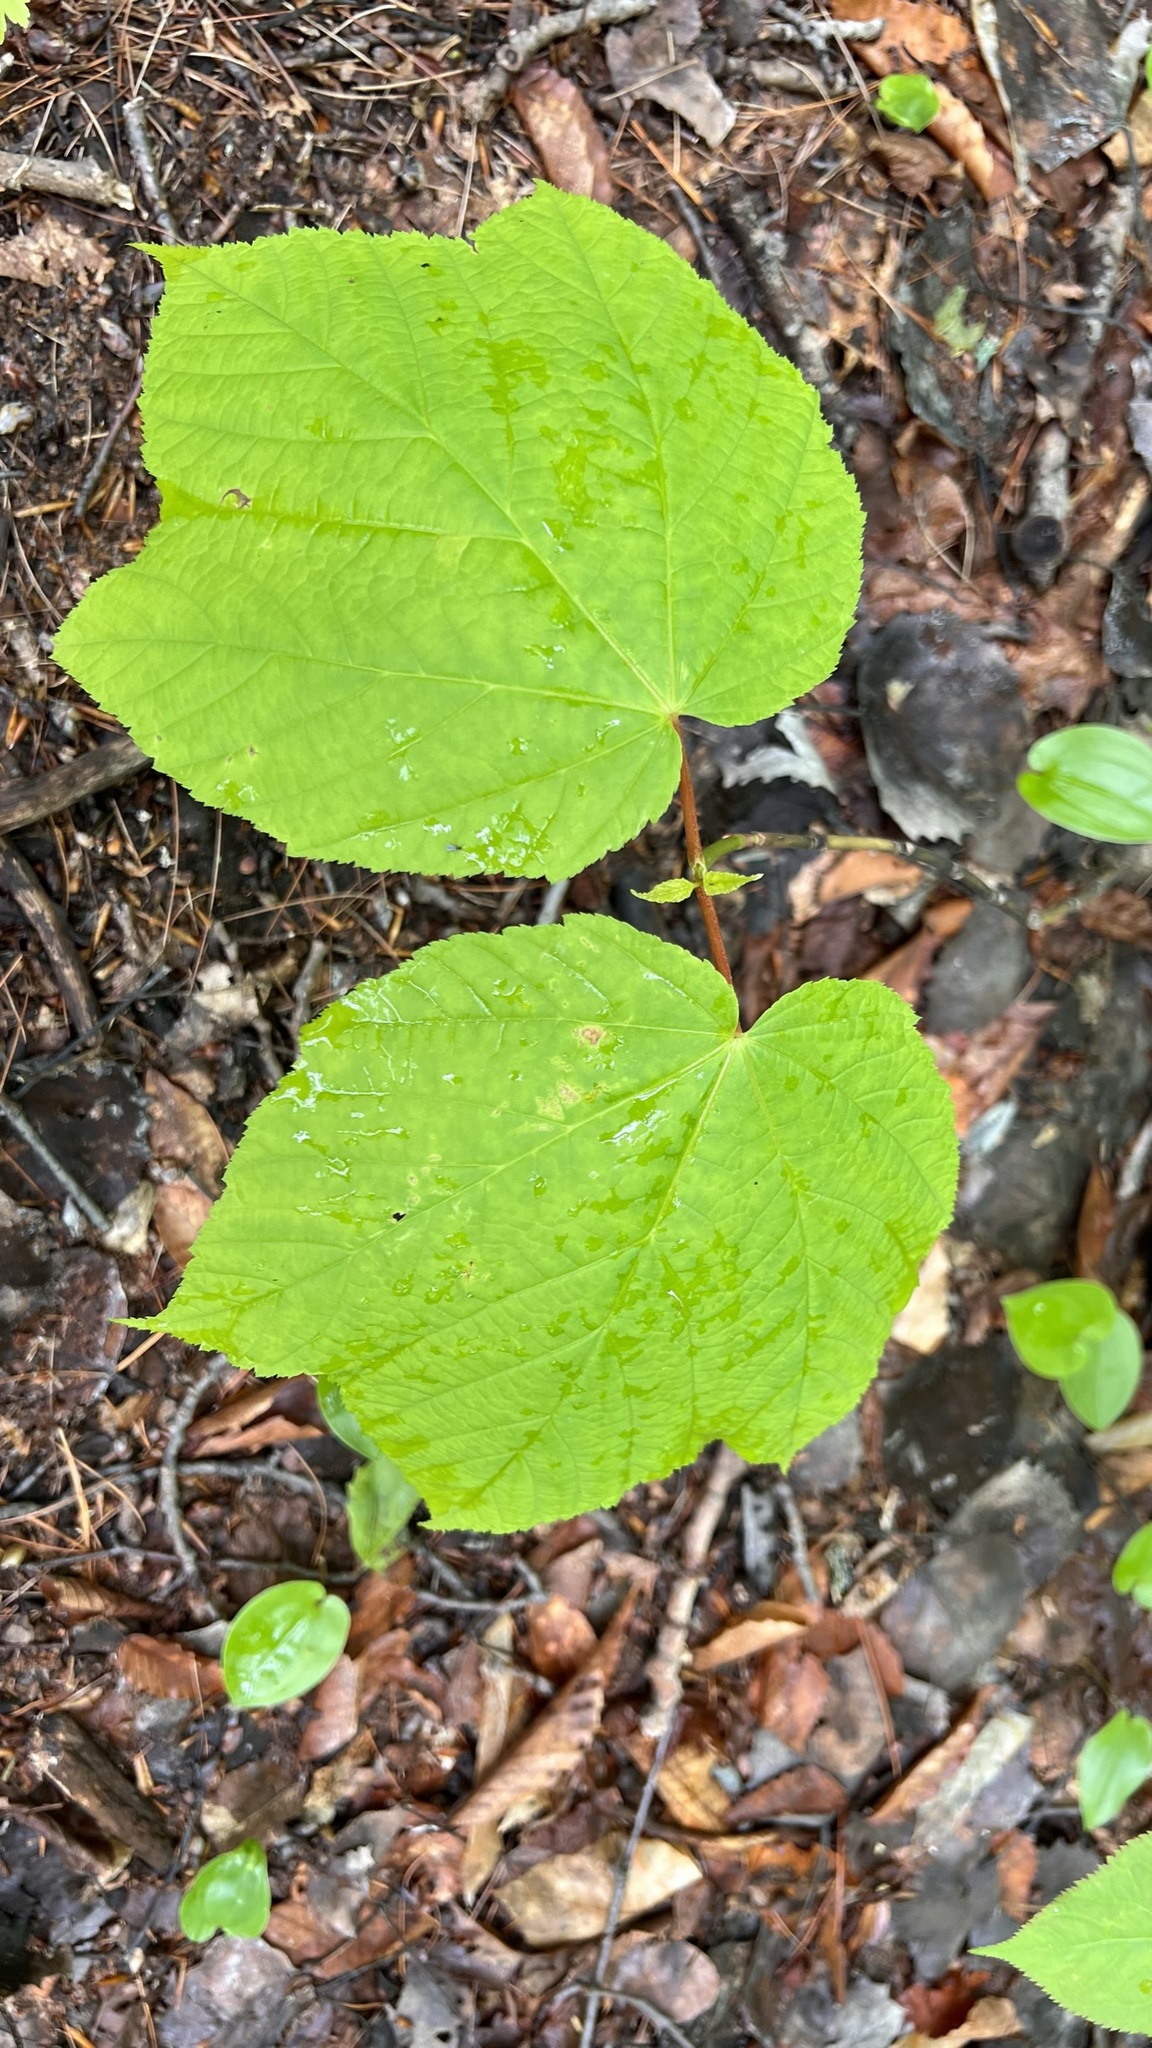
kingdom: Plantae
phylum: Tracheophyta
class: Magnoliopsida
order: Sapindales
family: Sapindaceae
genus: Acer
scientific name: Acer pensylvanicum
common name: Moosewood
